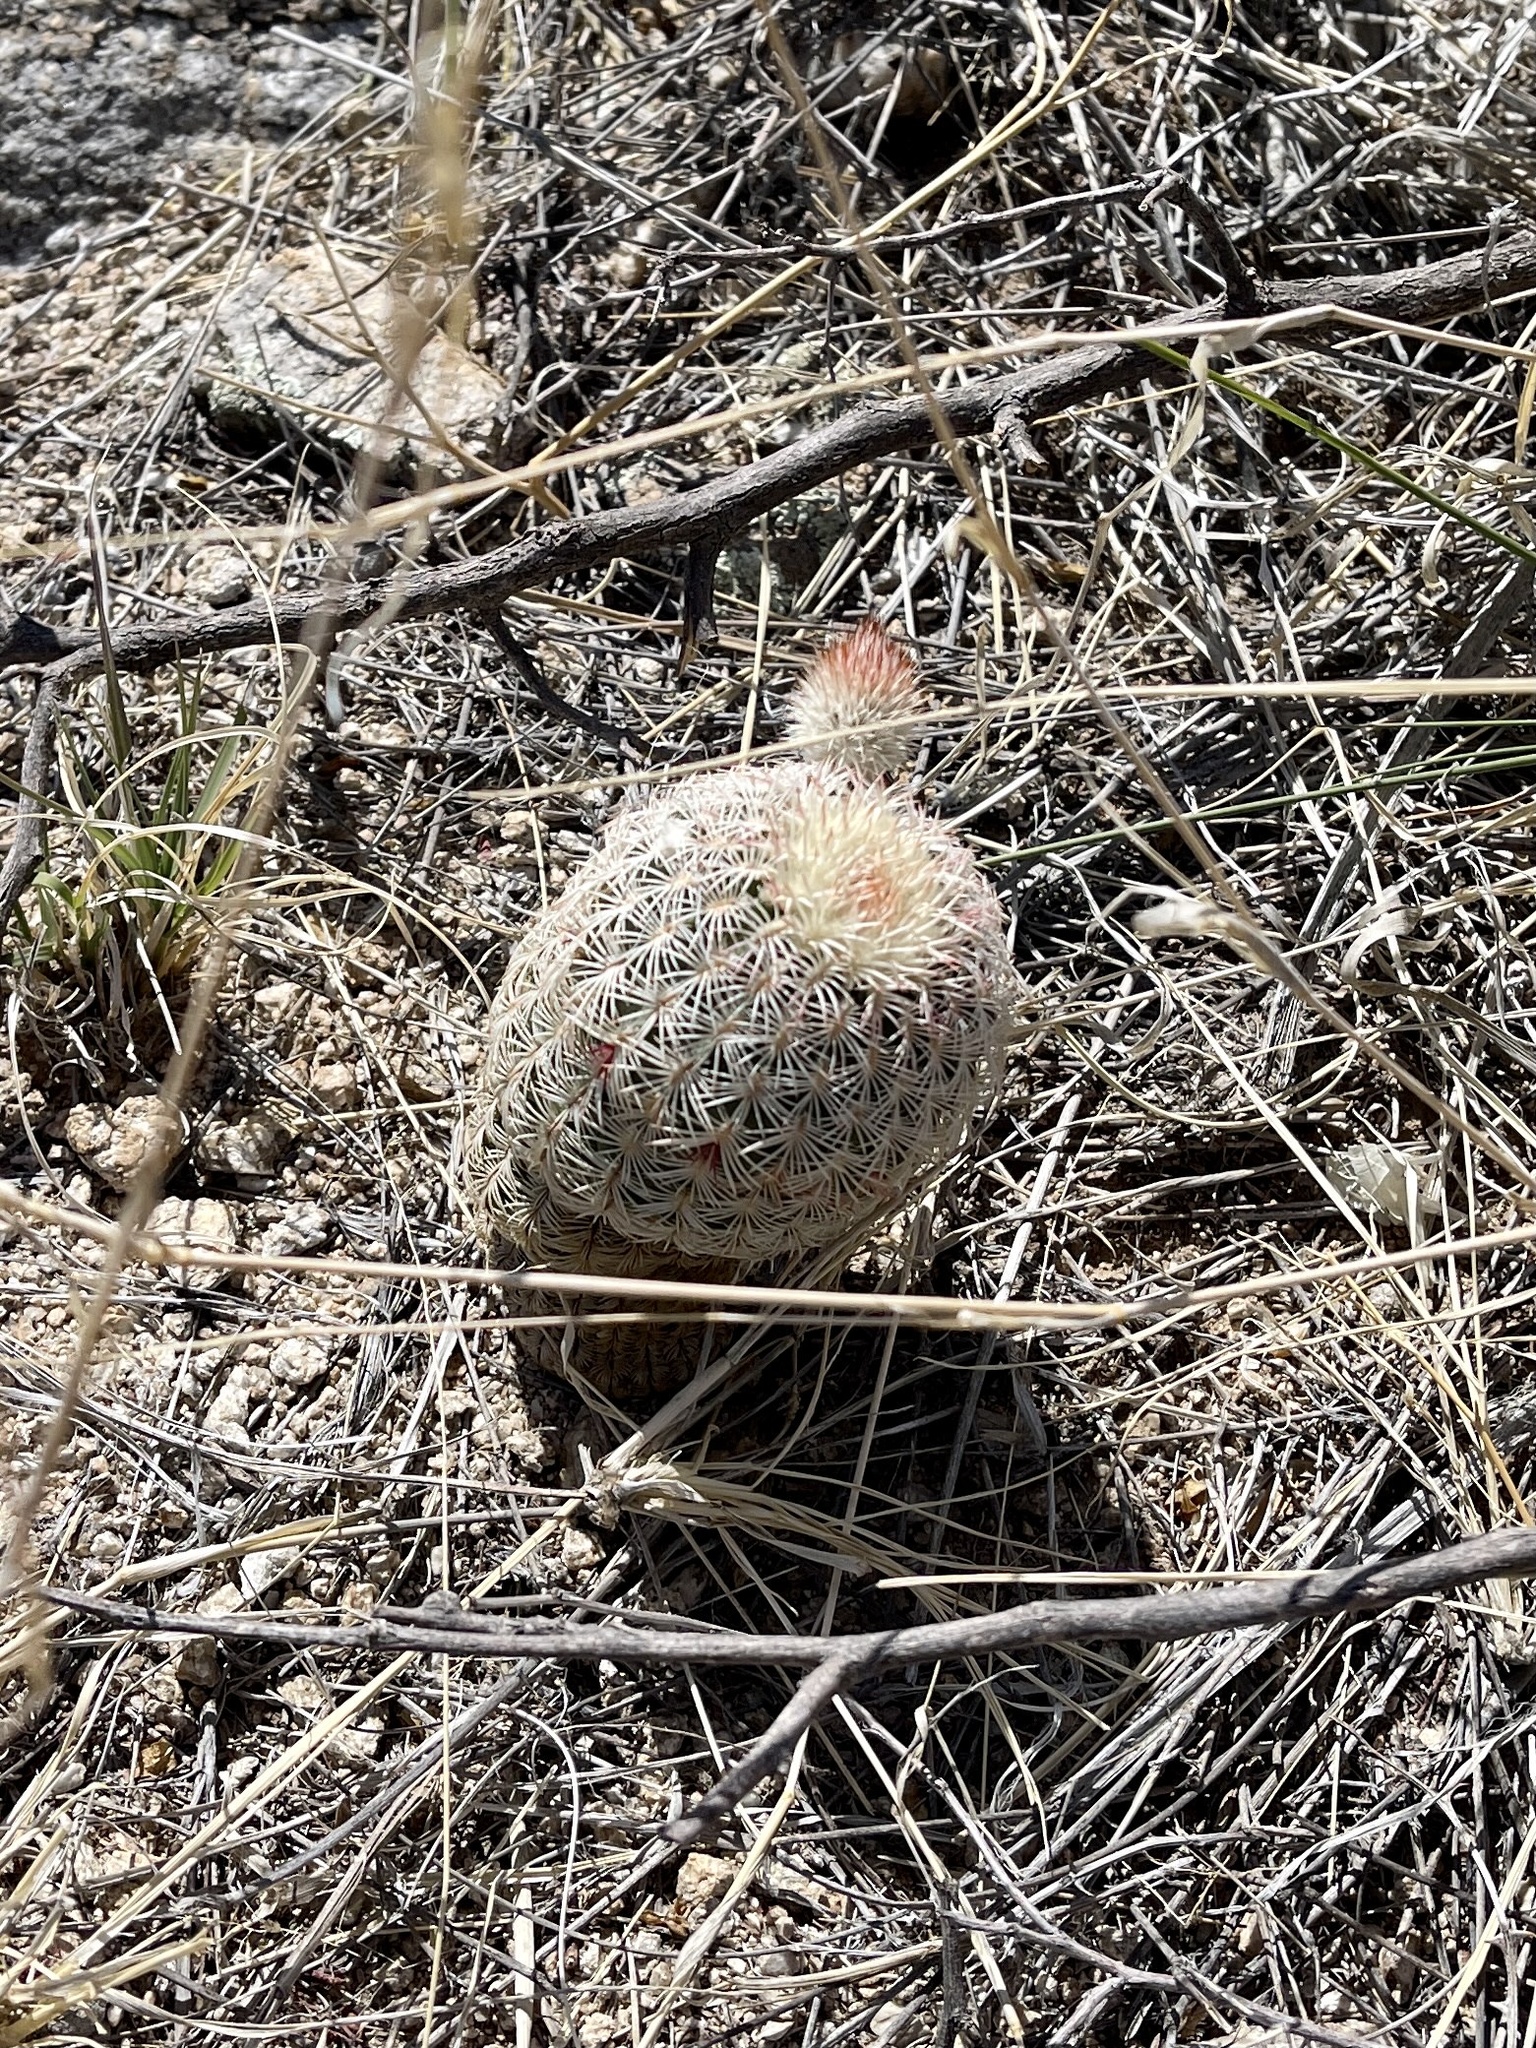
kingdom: Plantae
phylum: Tracheophyta
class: Magnoliopsida
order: Caryophyllales
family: Cactaceae
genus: Echinocereus
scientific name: Echinocereus rigidissimus
